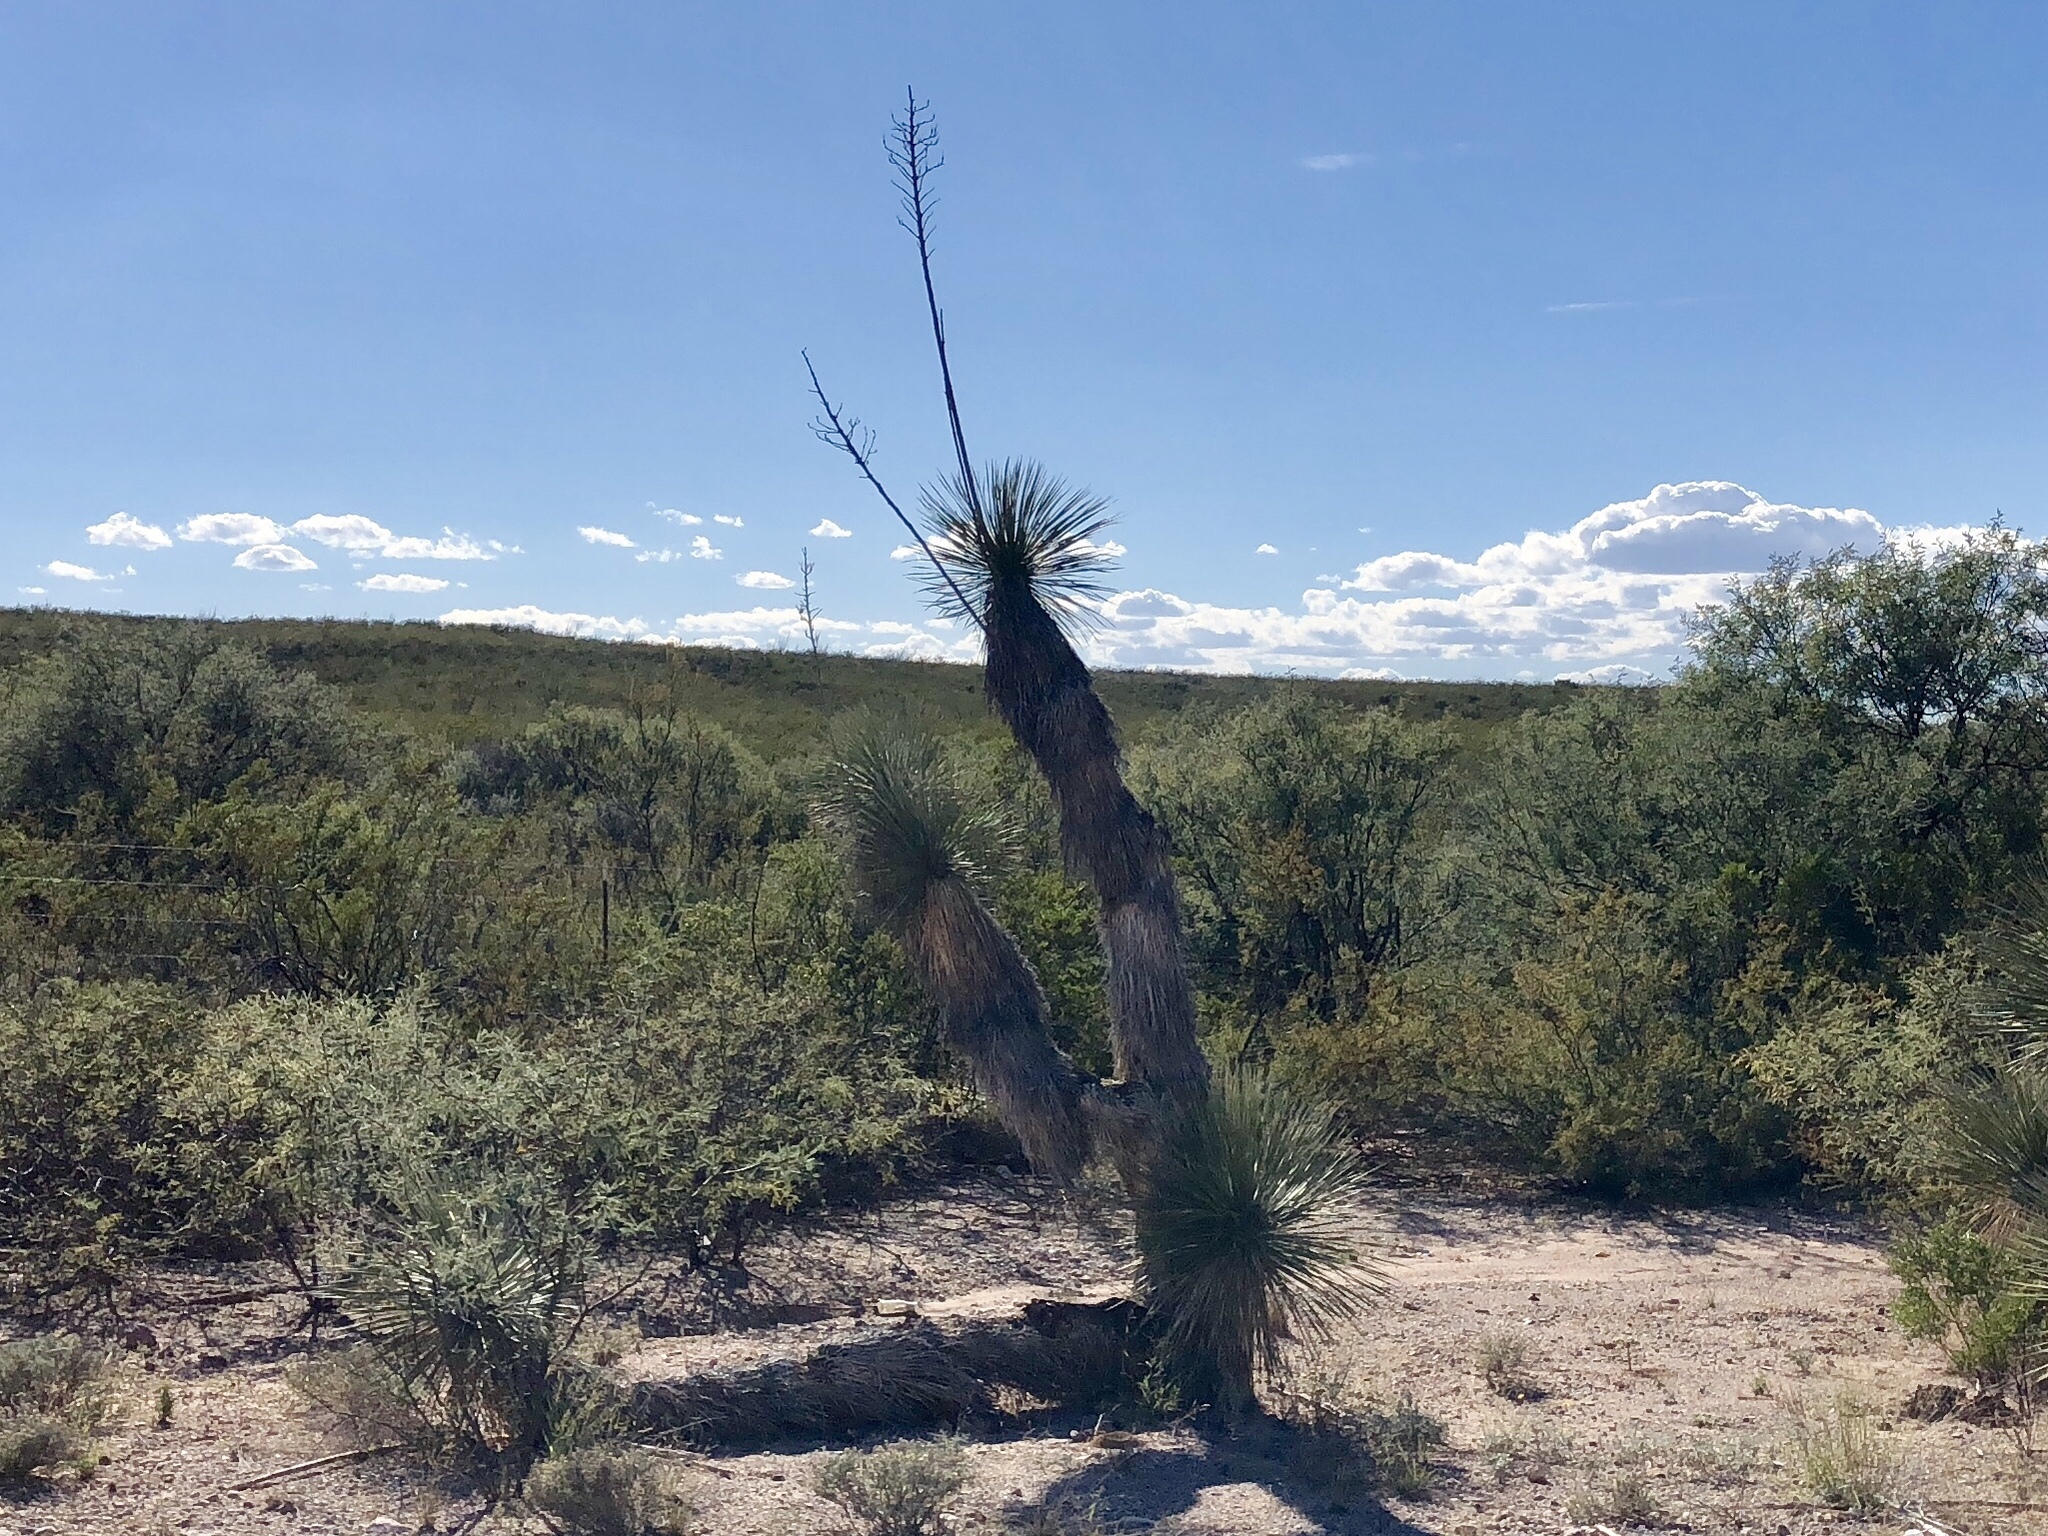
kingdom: Plantae
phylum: Tracheophyta
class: Liliopsida
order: Asparagales
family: Asparagaceae
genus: Yucca
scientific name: Yucca elata
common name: Palmella
